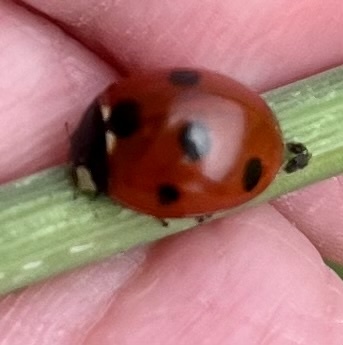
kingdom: Animalia
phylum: Arthropoda
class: Insecta
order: Coleoptera
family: Coccinellidae
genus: Coccinella
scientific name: Coccinella septempunctata
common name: Sevenspotted lady beetle
